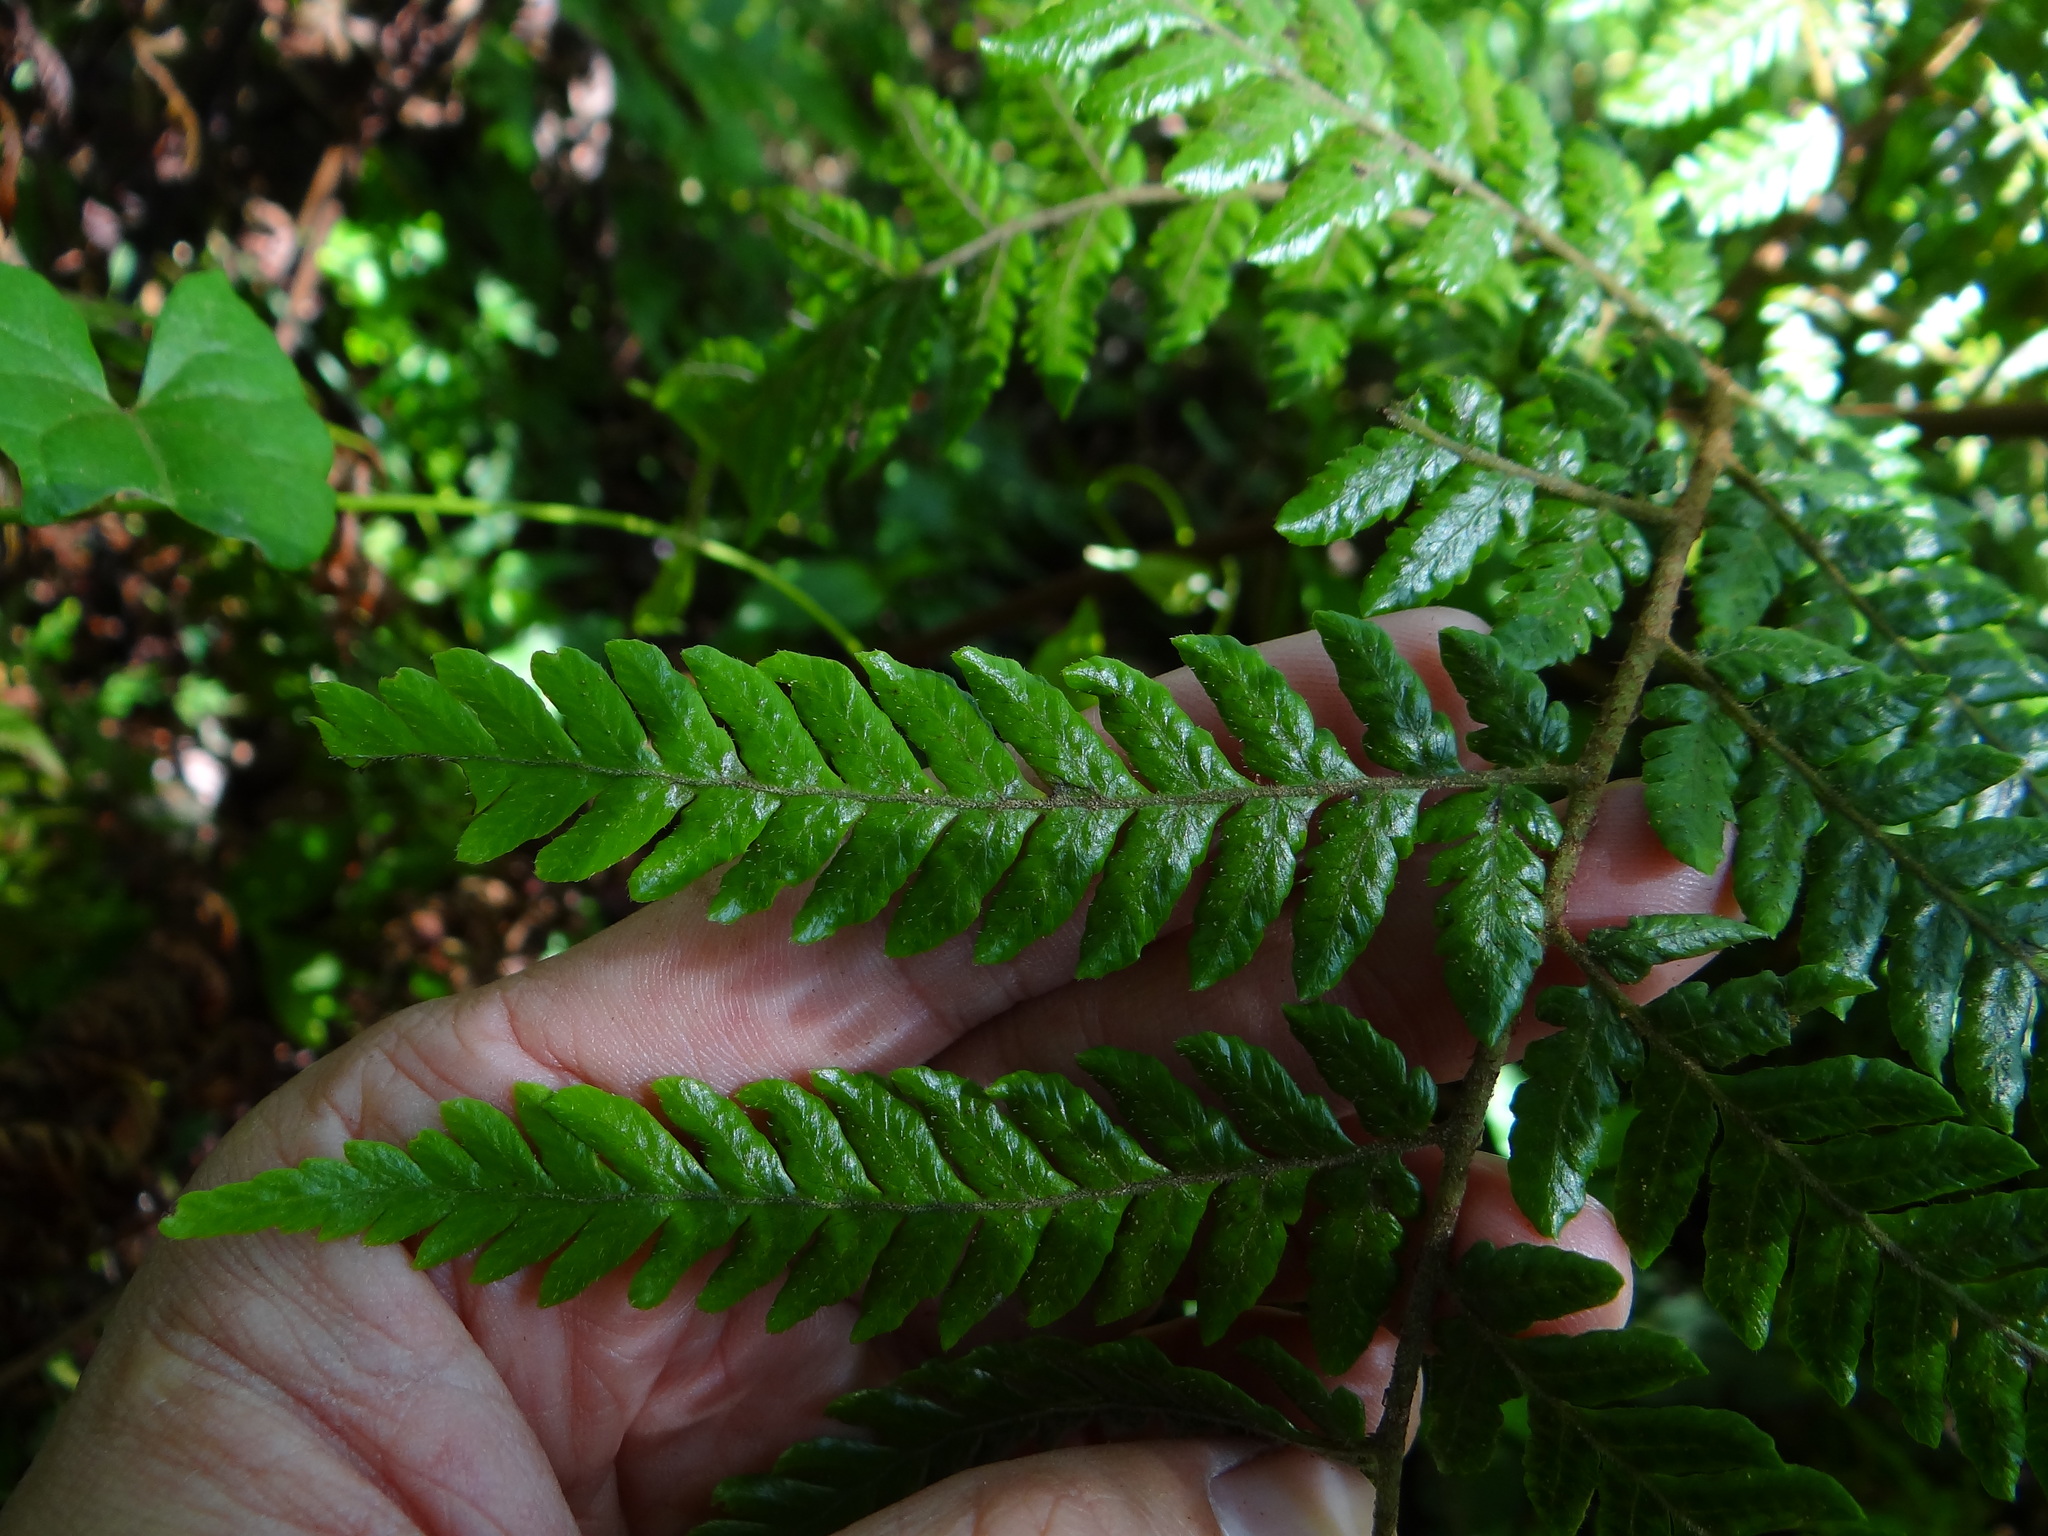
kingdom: Plantae
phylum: Tracheophyta
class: Polypodiopsida
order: Polypodiales
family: Dryopteridaceae
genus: Ctenitis
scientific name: Ctenitis subglandulosa
